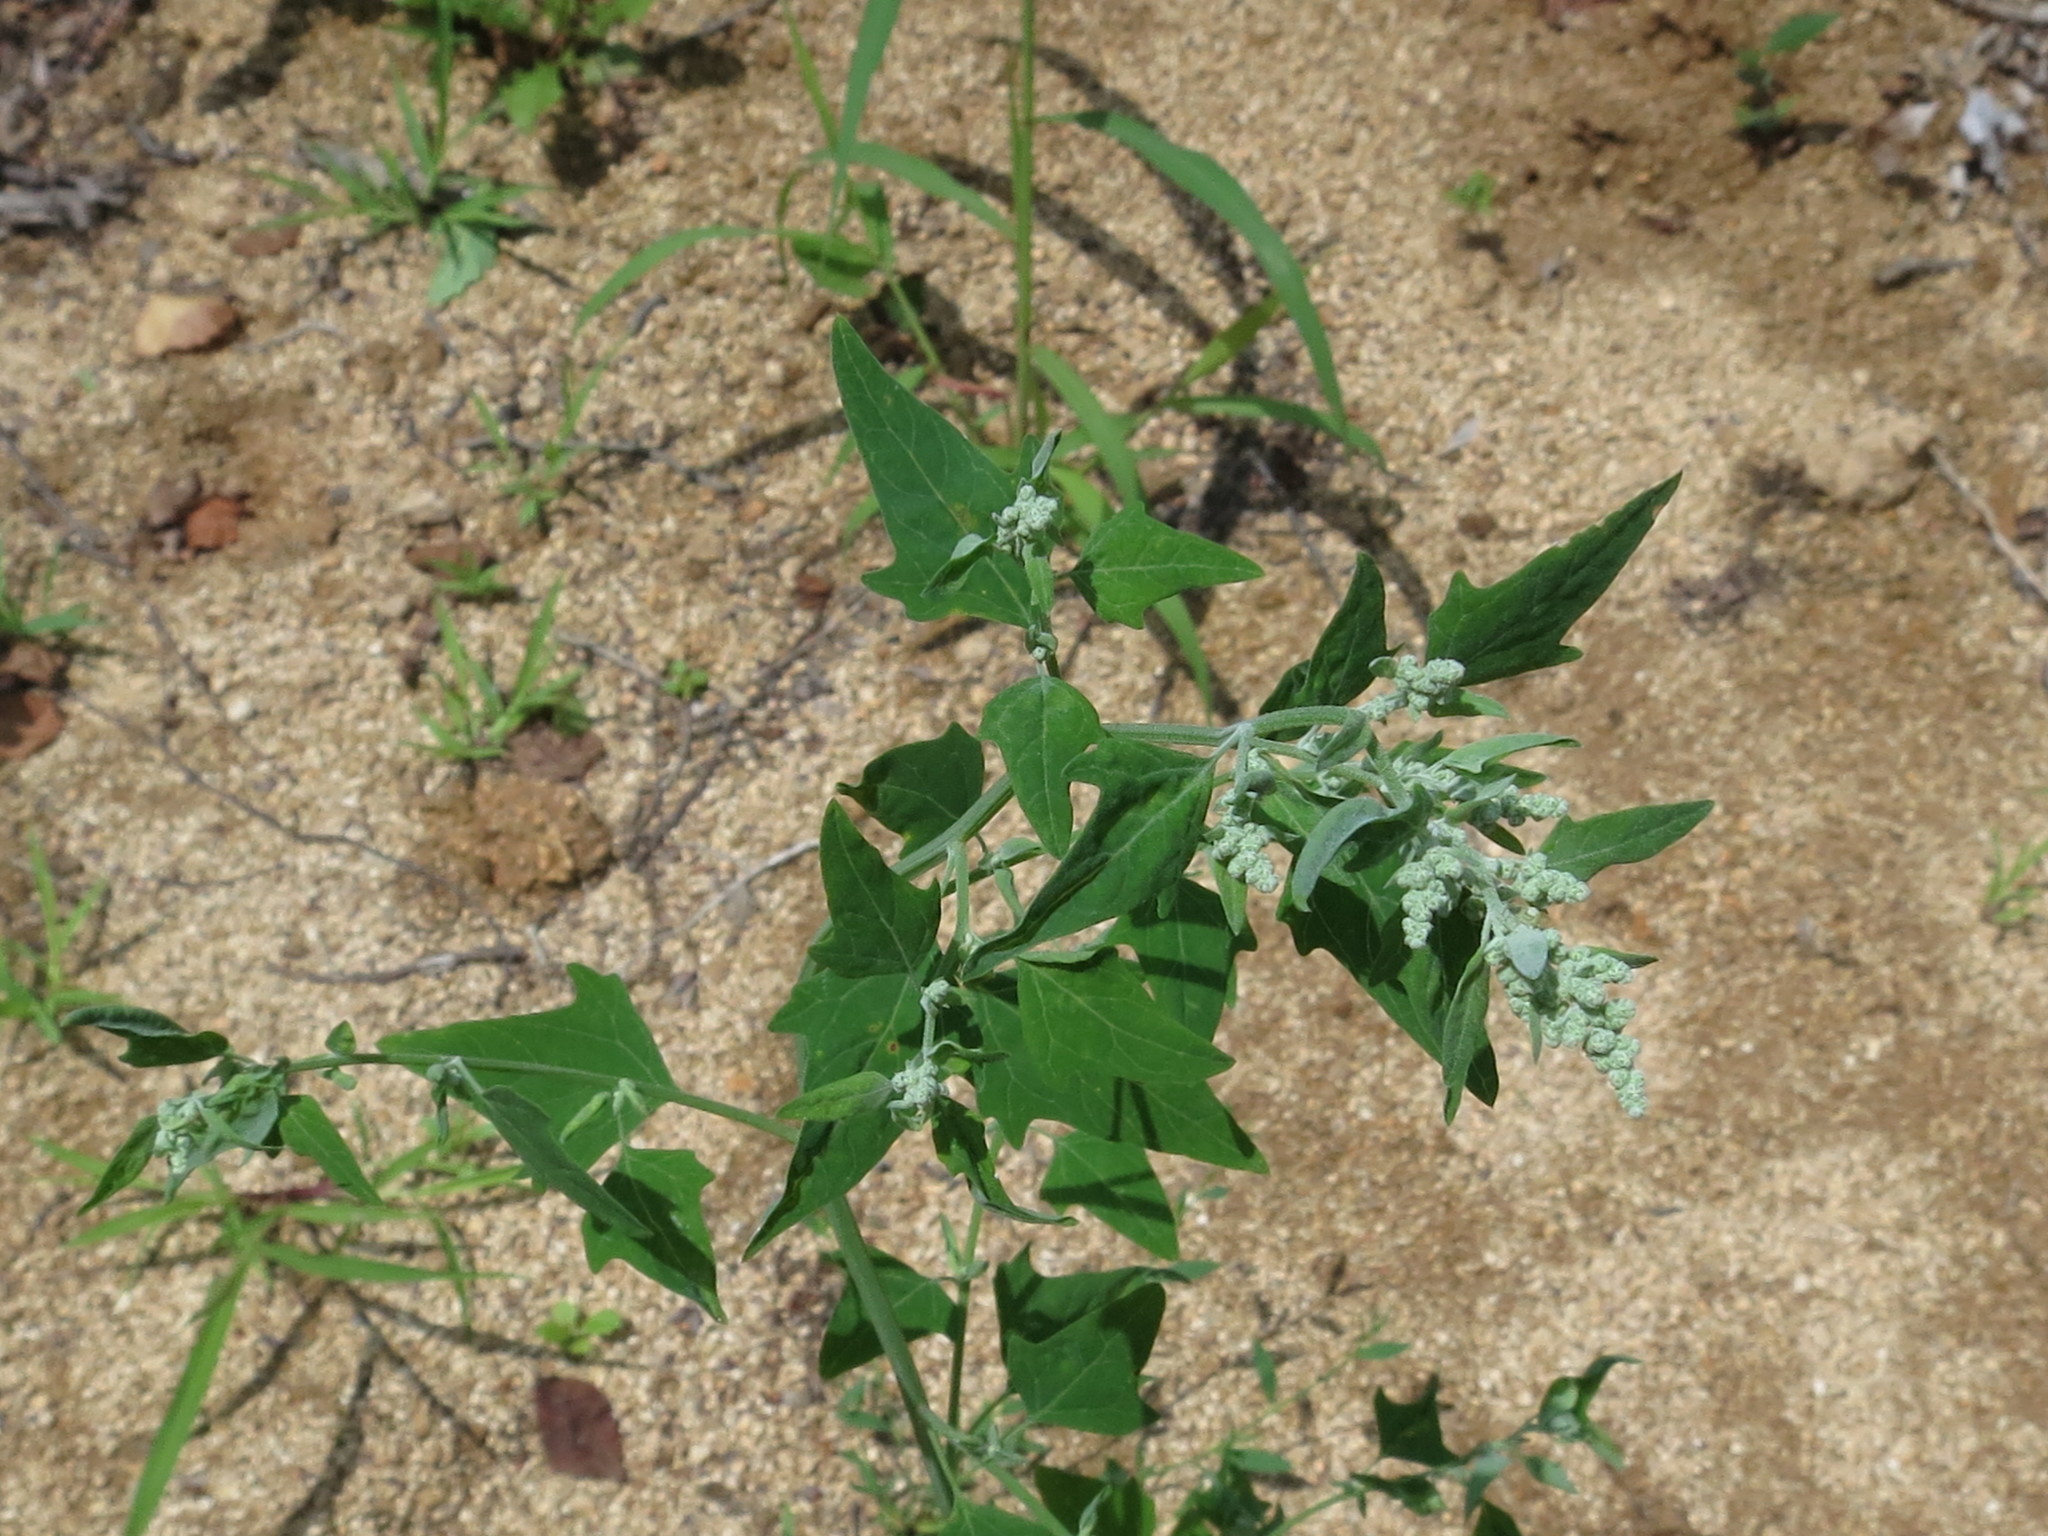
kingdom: Plantae
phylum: Tracheophyta
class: Magnoliopsida
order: Caryophyllales
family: Amaranthaceae
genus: Chenopodium
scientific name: Chenopodium bryoniifolium
